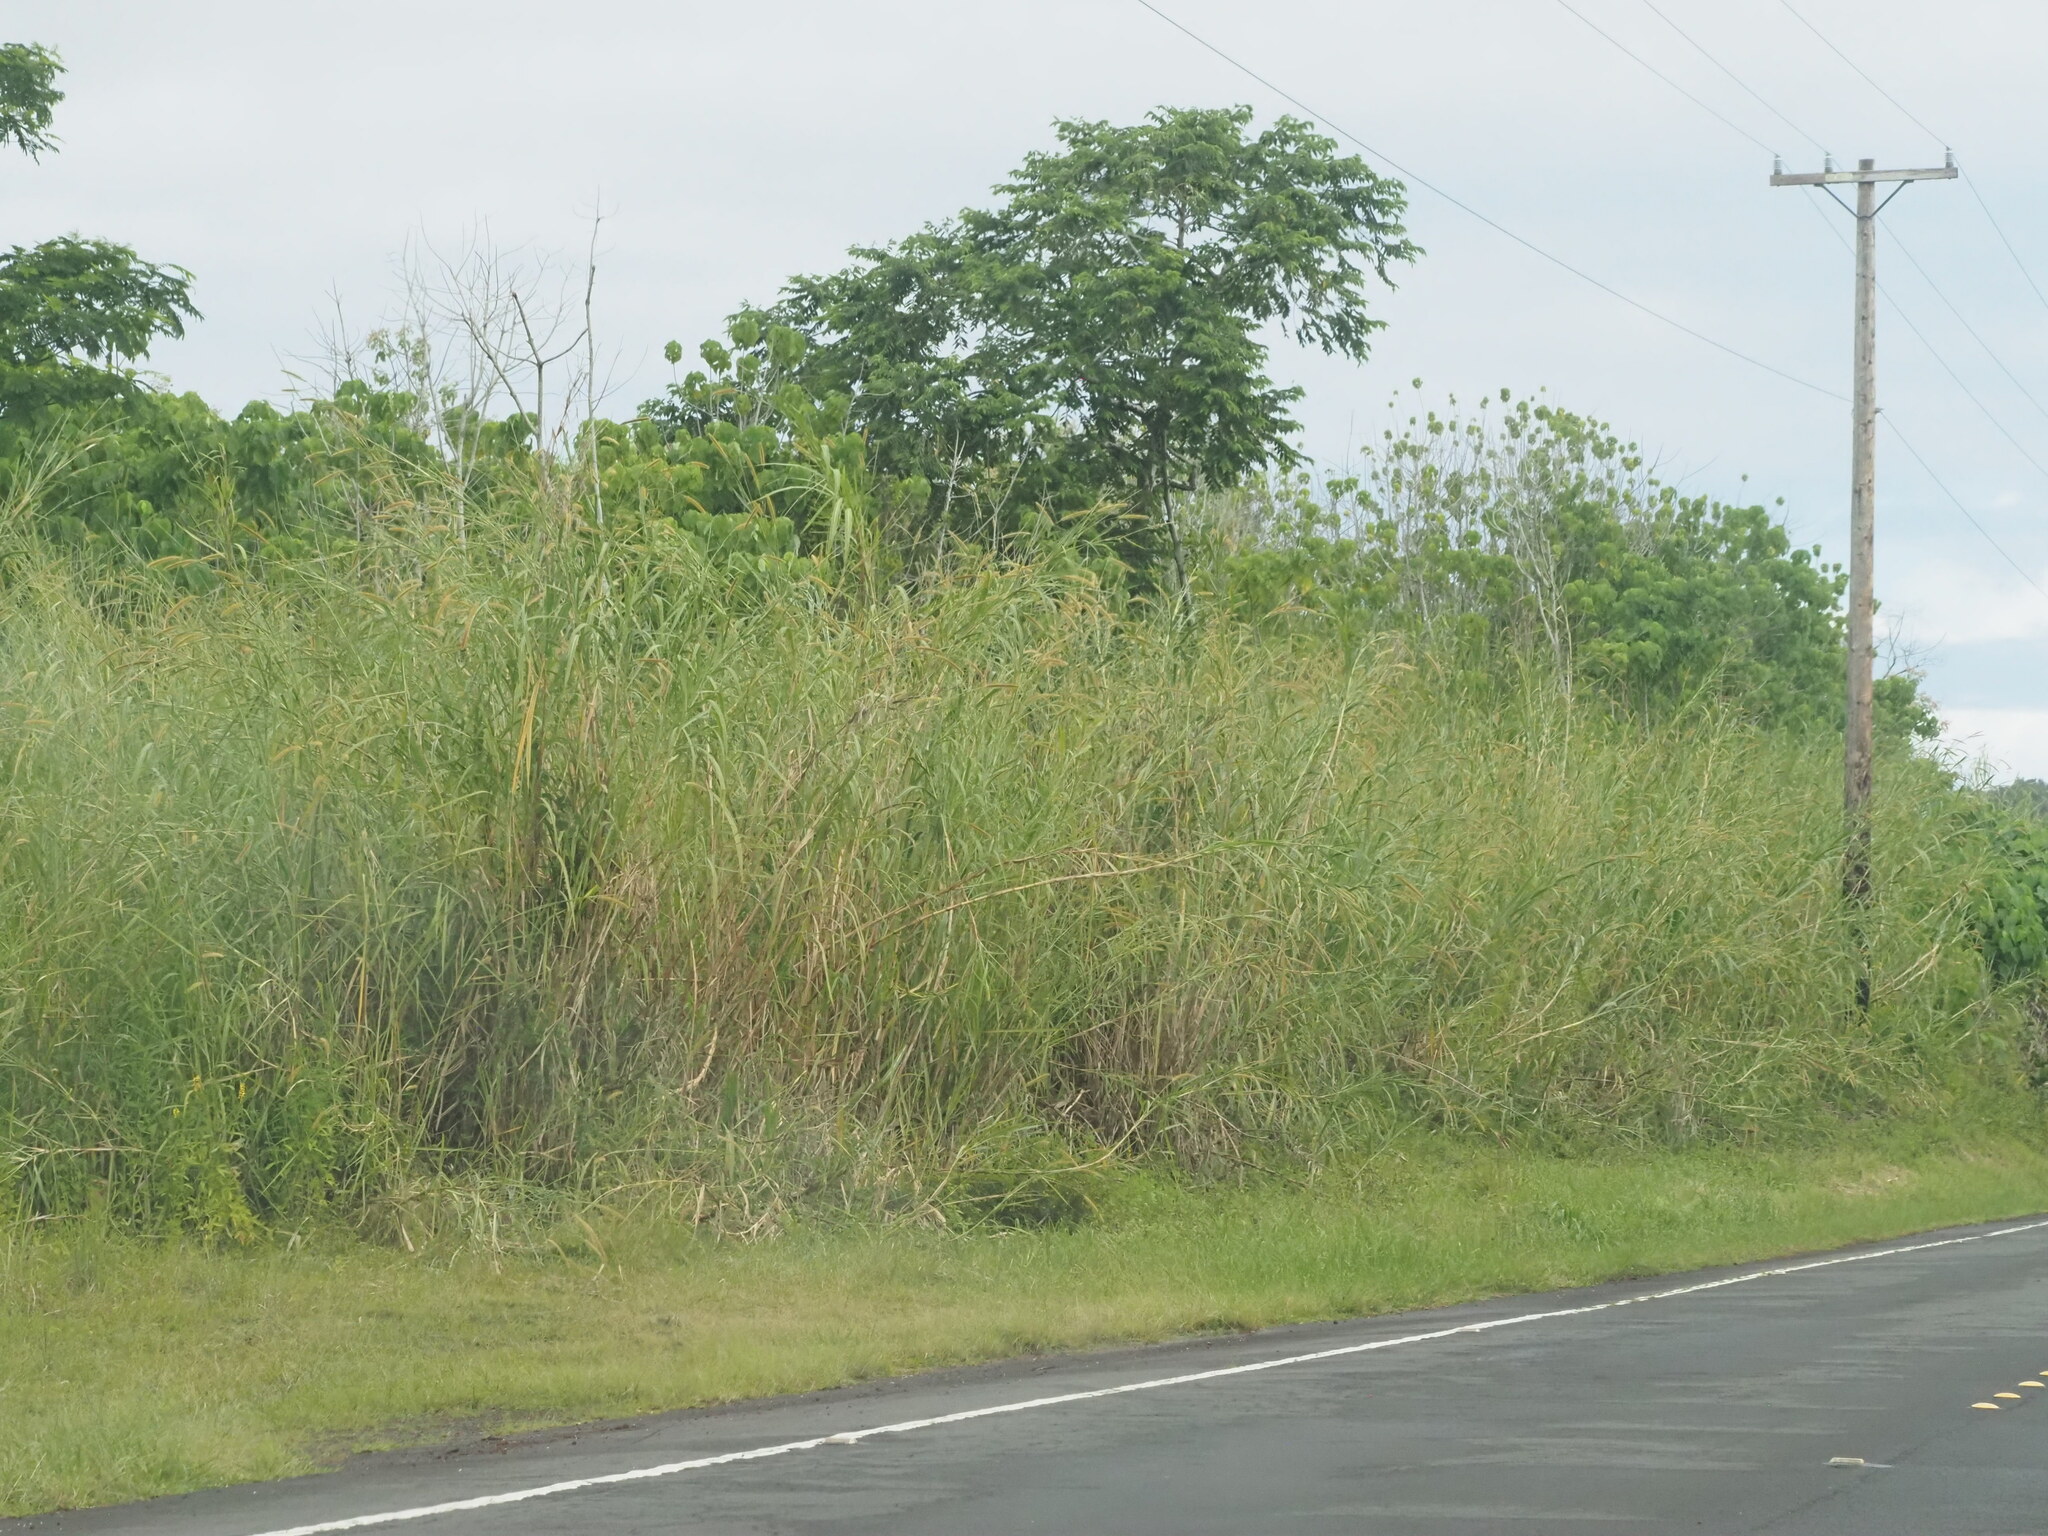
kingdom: Plantae
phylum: Tracheophyta
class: Liliopsida
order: Poales
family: Poaceae
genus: Cenchrus
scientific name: Cenchrus purpureus
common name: Elephant grass
